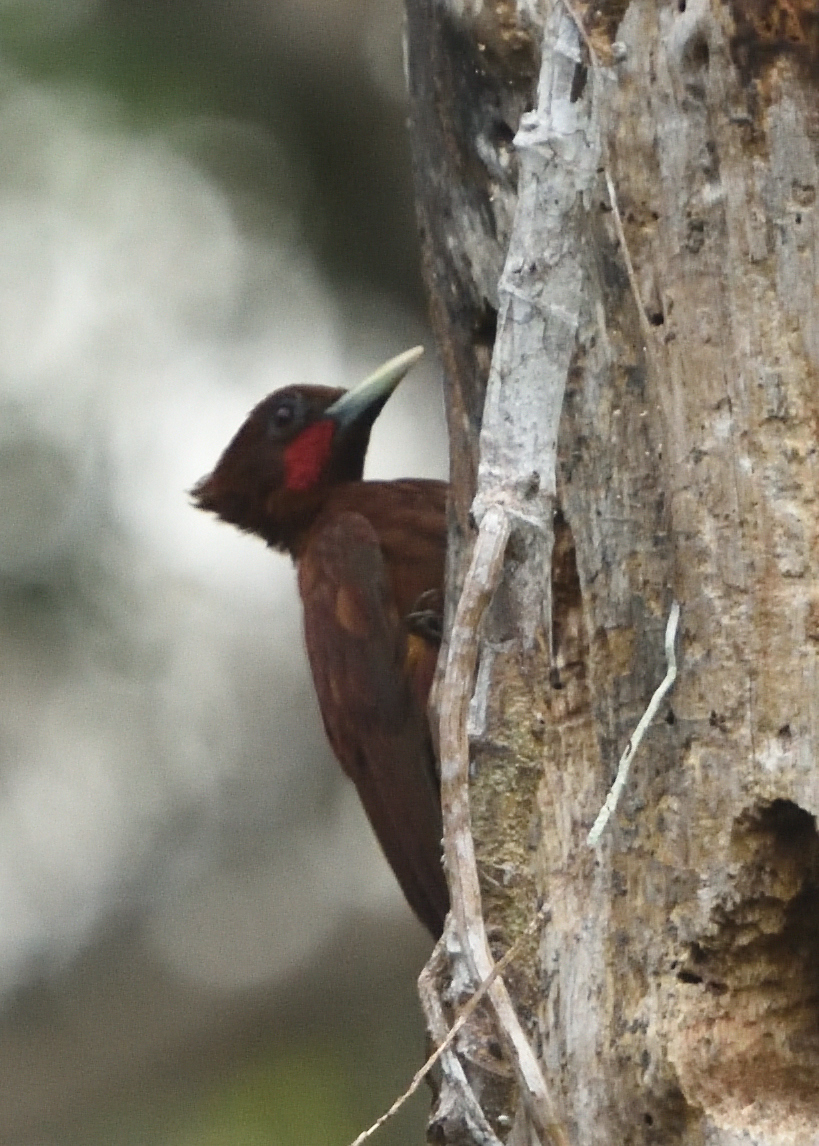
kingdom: Animalia
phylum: Chordata
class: Aves
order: Piciformes
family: Picidae
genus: Celeus
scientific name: Celeus elegans
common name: Chestnut woodpecker
